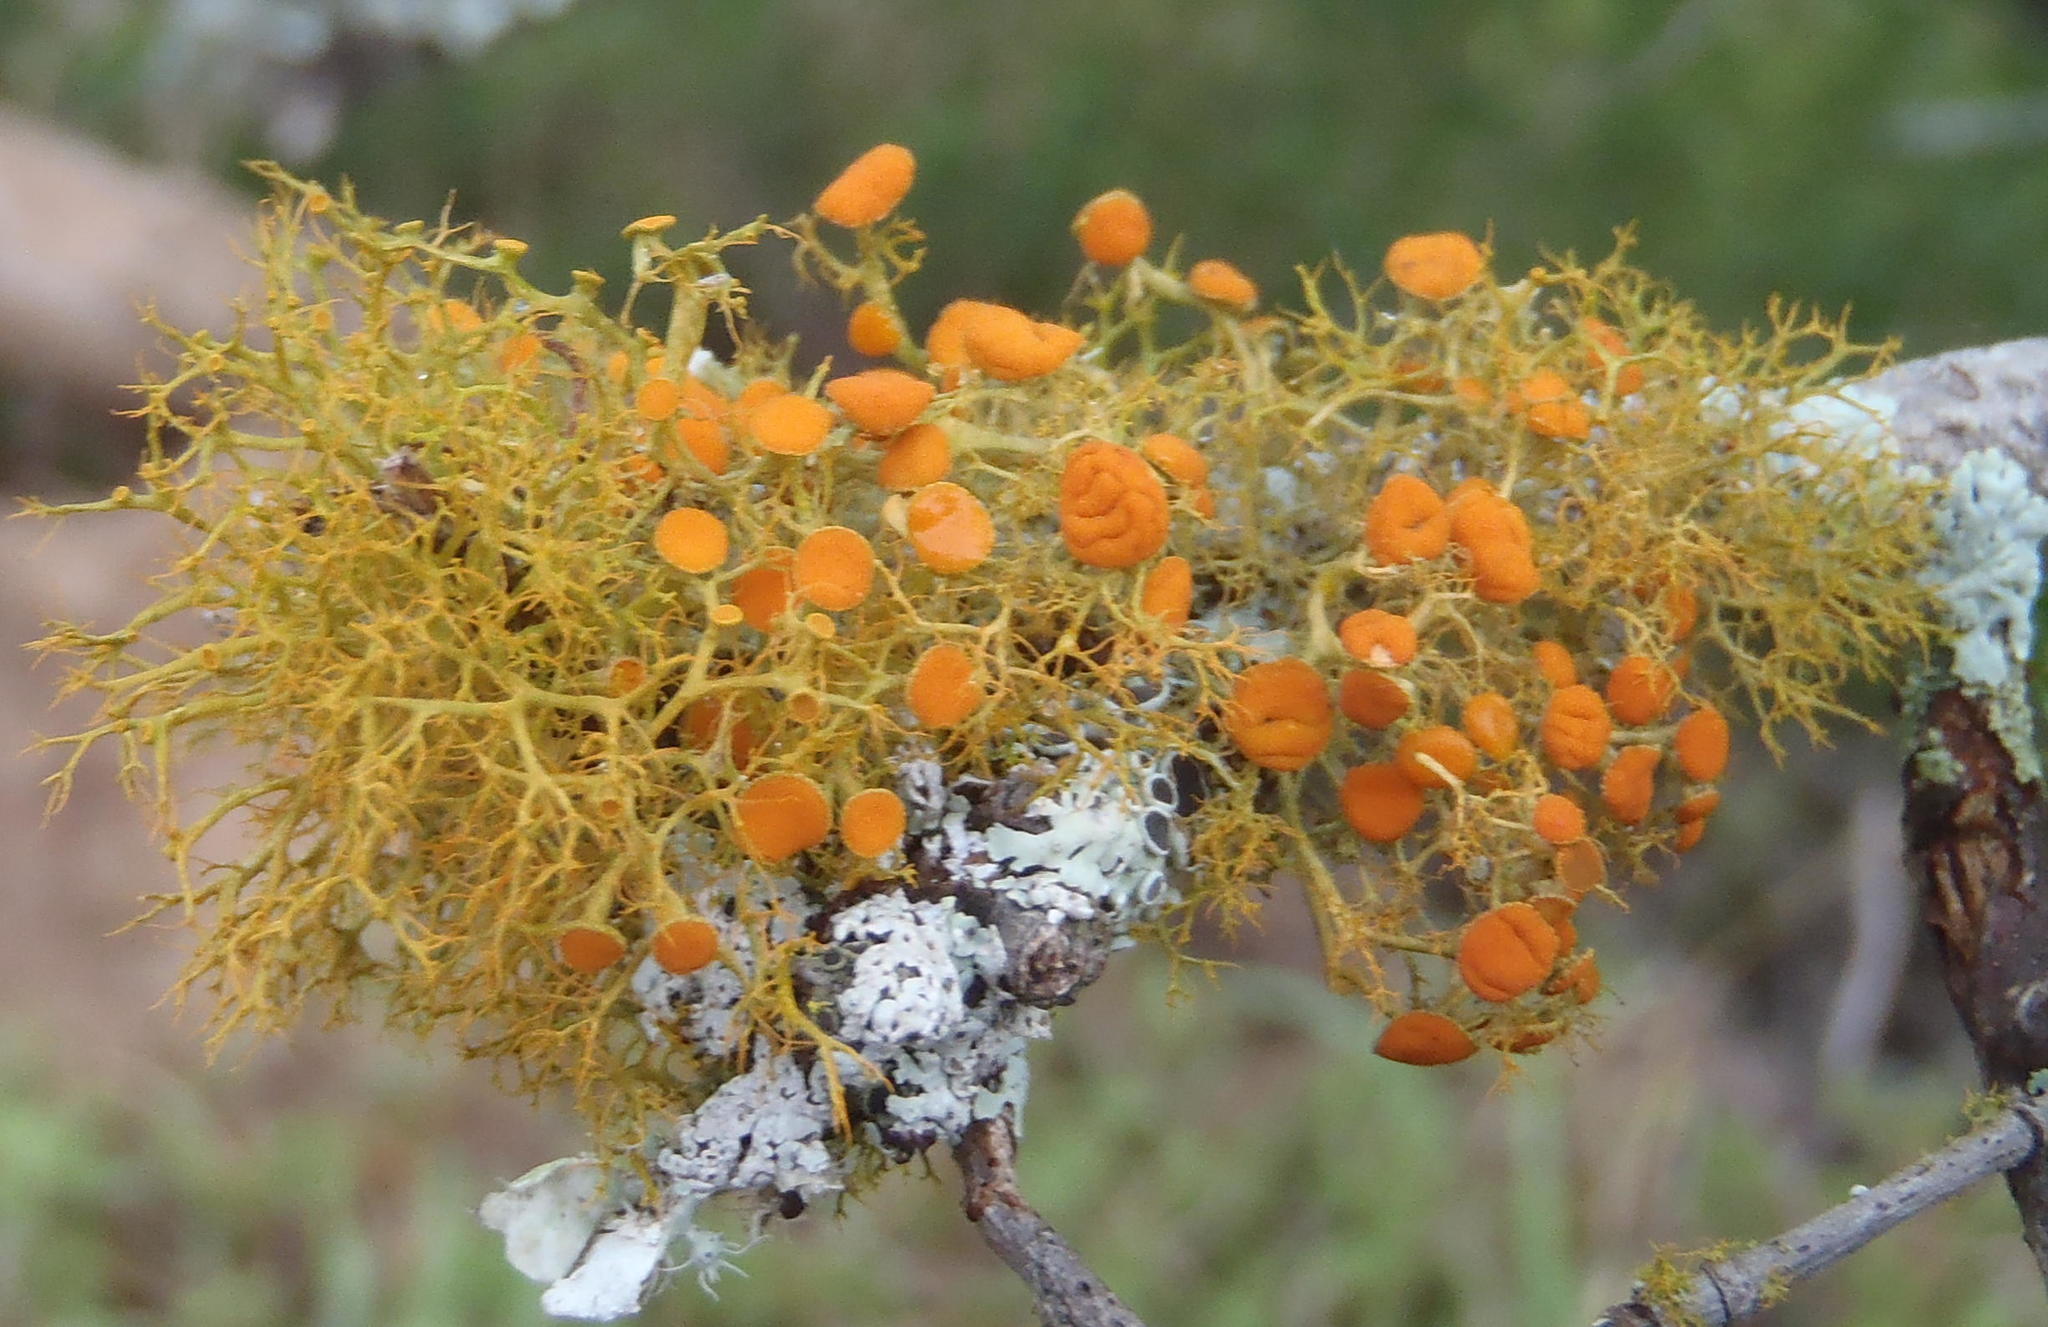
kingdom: Fungi
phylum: Ascomycota
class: Lecanoromycetes
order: Teloschistales
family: Teloschistaceae
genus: Teloschistes
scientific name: Teloschistes exilis
